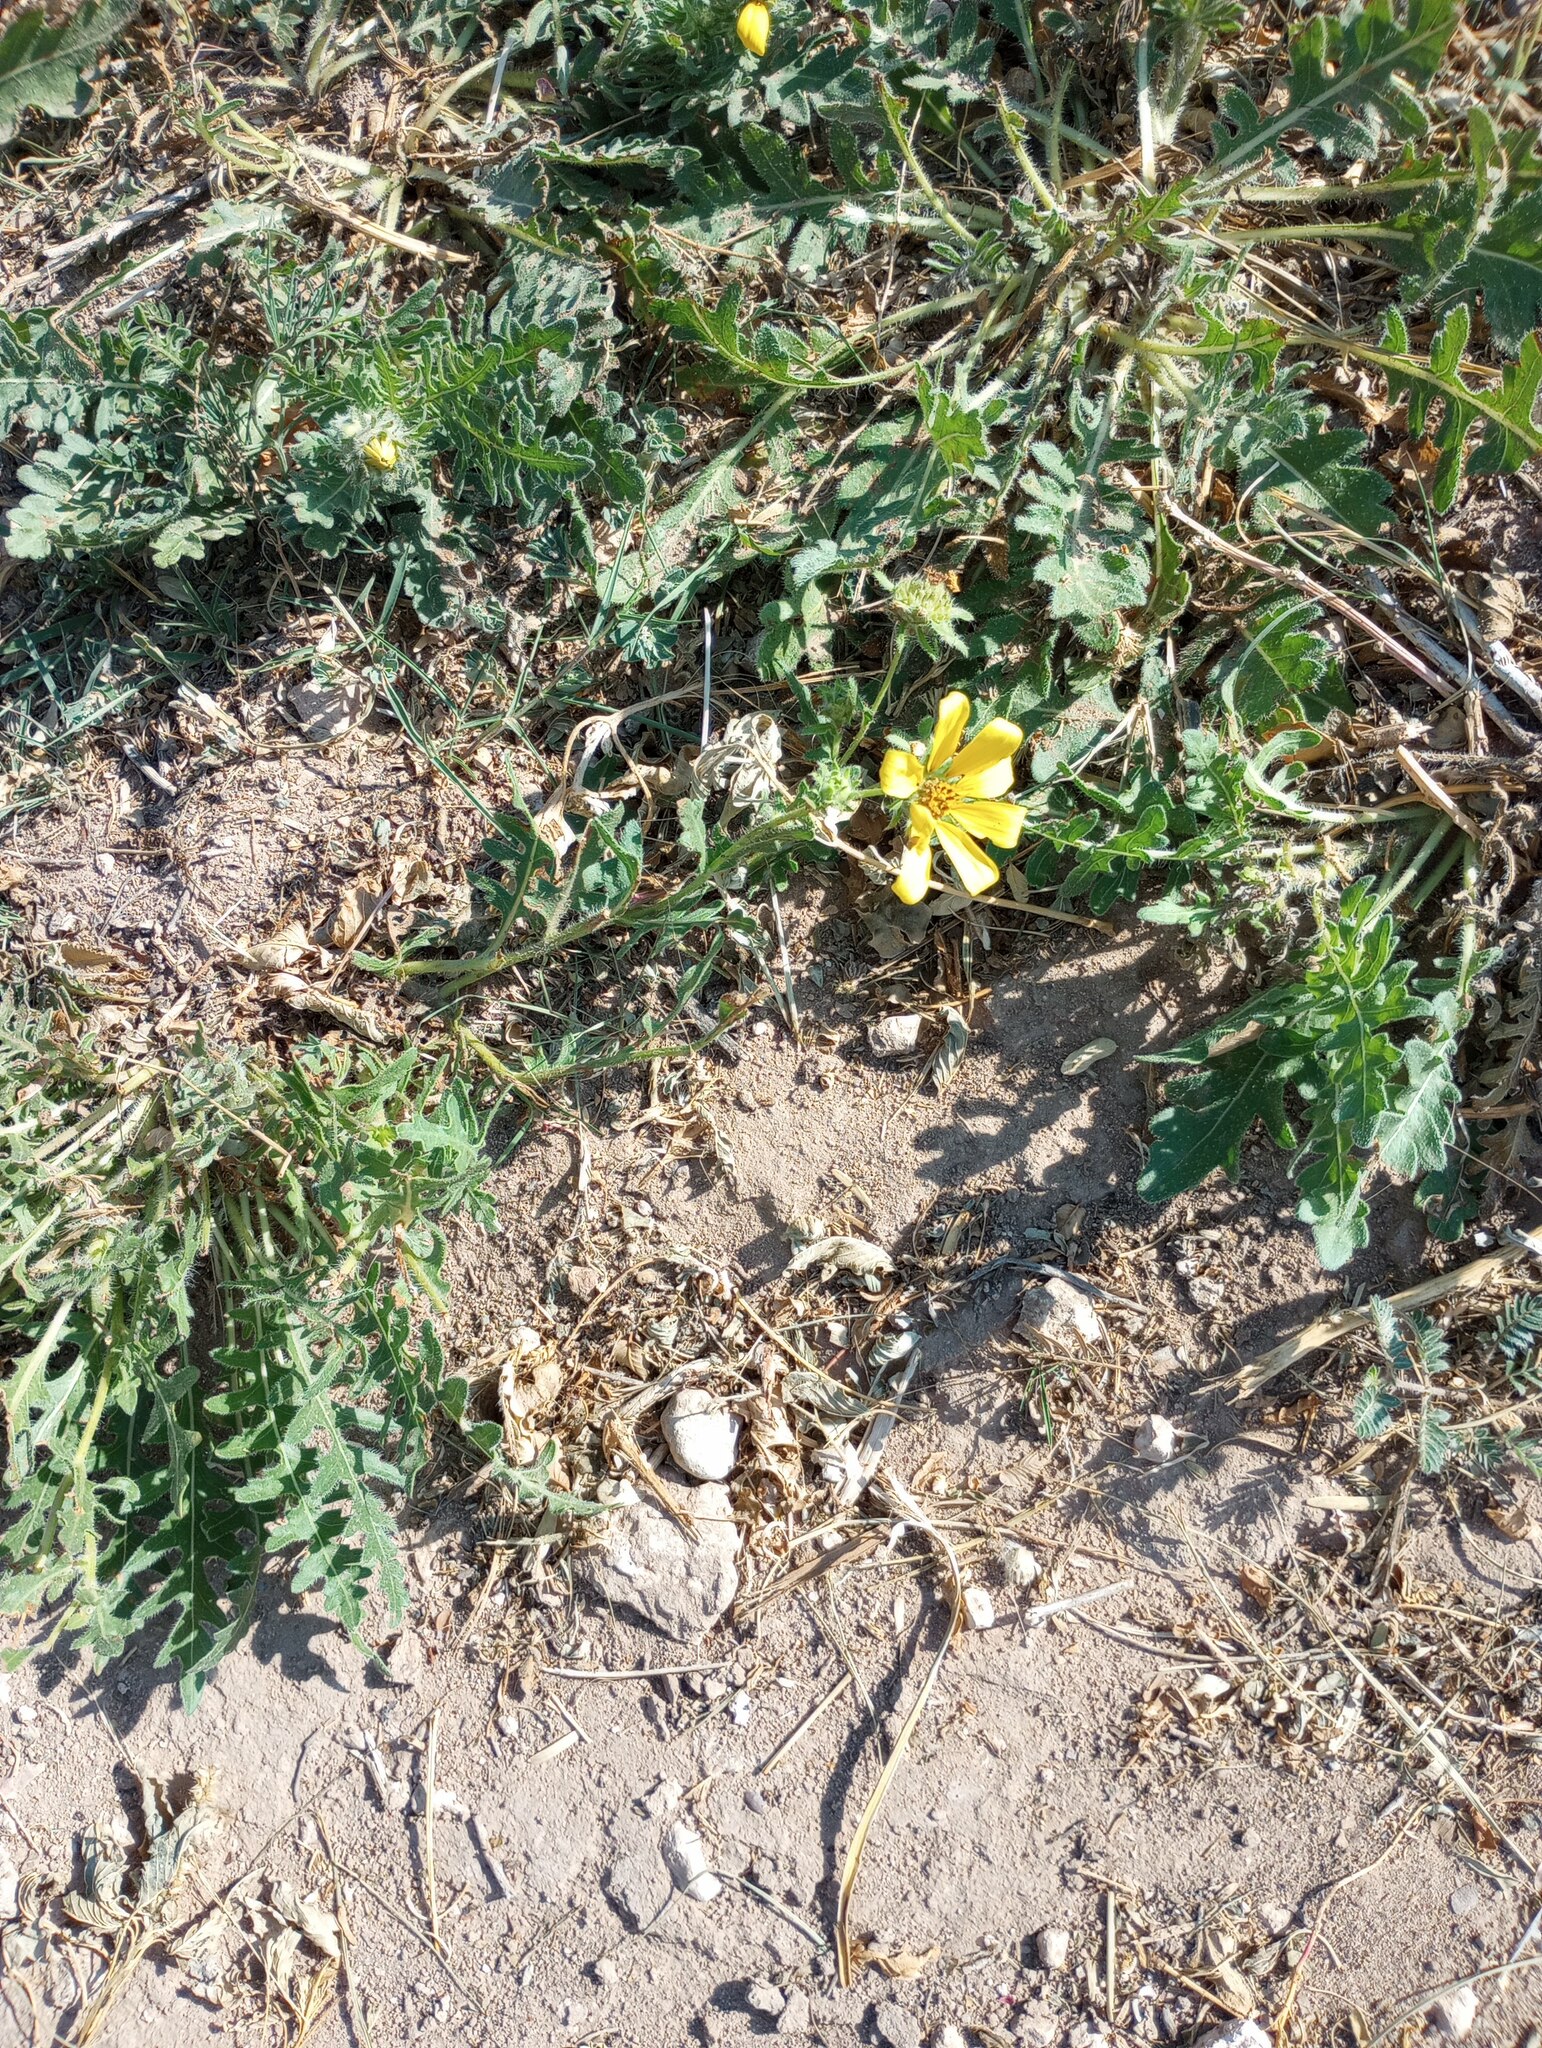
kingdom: Plantae
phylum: Tracheophyta
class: Magnoliopsida
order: Asterales
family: Asteraceae
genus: Engelmannia
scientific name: Engelmannia peristenia
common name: Engelmann's daisy
